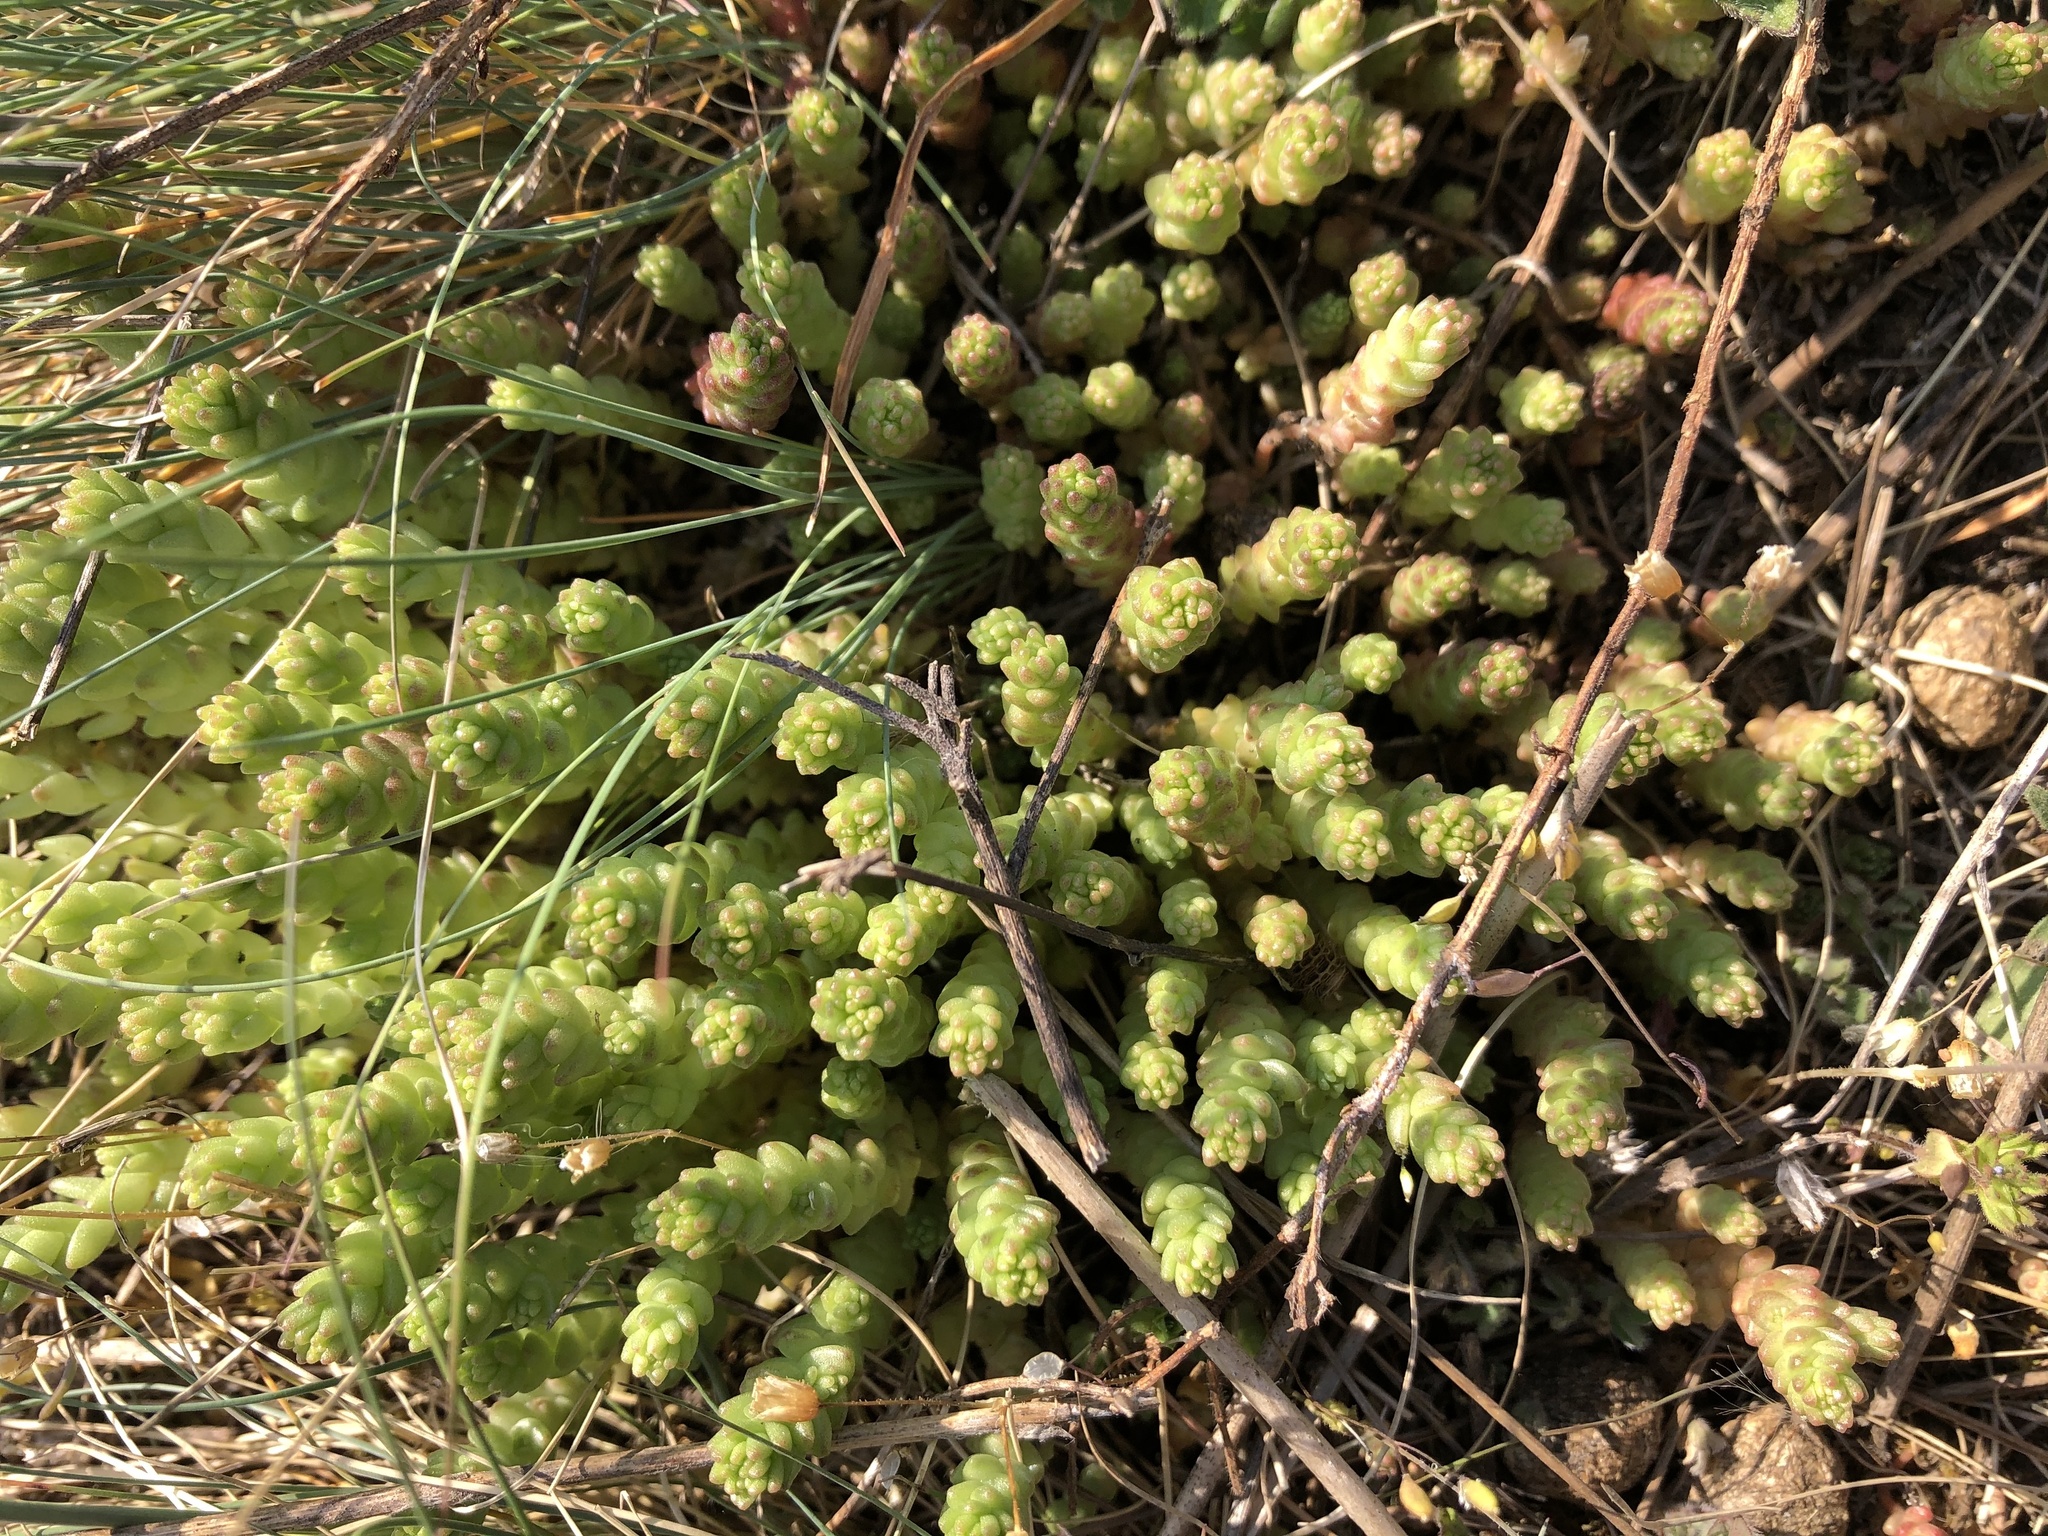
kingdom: Plantae
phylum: Tracheophyta
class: Magnoliopsida
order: Saxifragales
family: Crassulaceae
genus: Sedum
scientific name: Sedum acre
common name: Biting stonecrop
